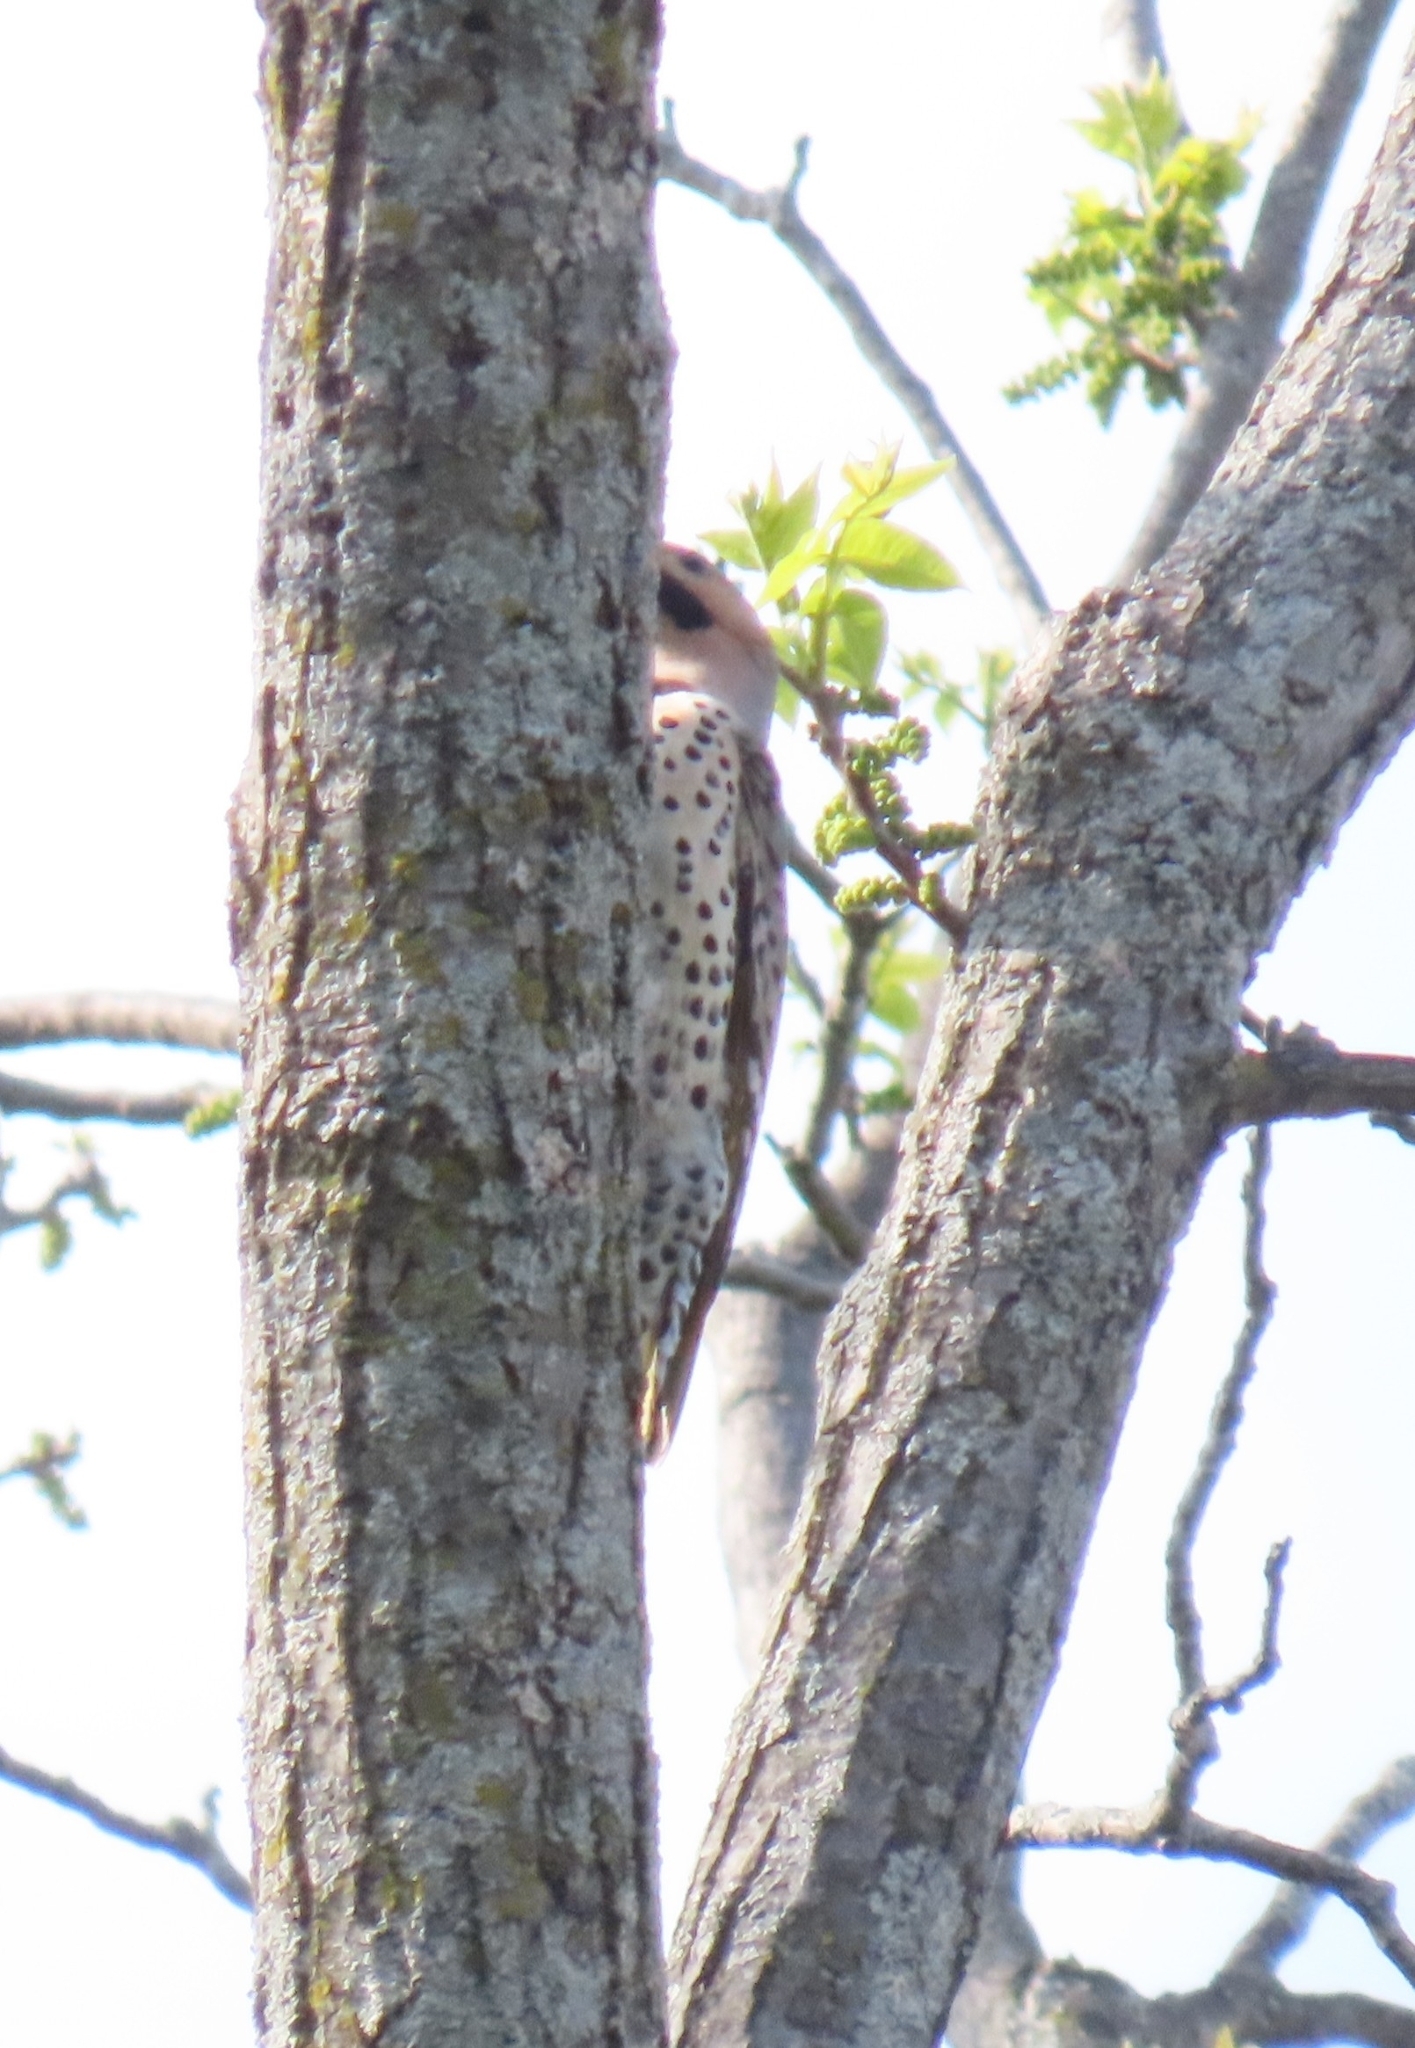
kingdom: Animalia
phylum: Chordata
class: Aves
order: Piciformes
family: Picidae
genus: Colaptes
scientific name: Colaptes auratus
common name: Northern flicker
